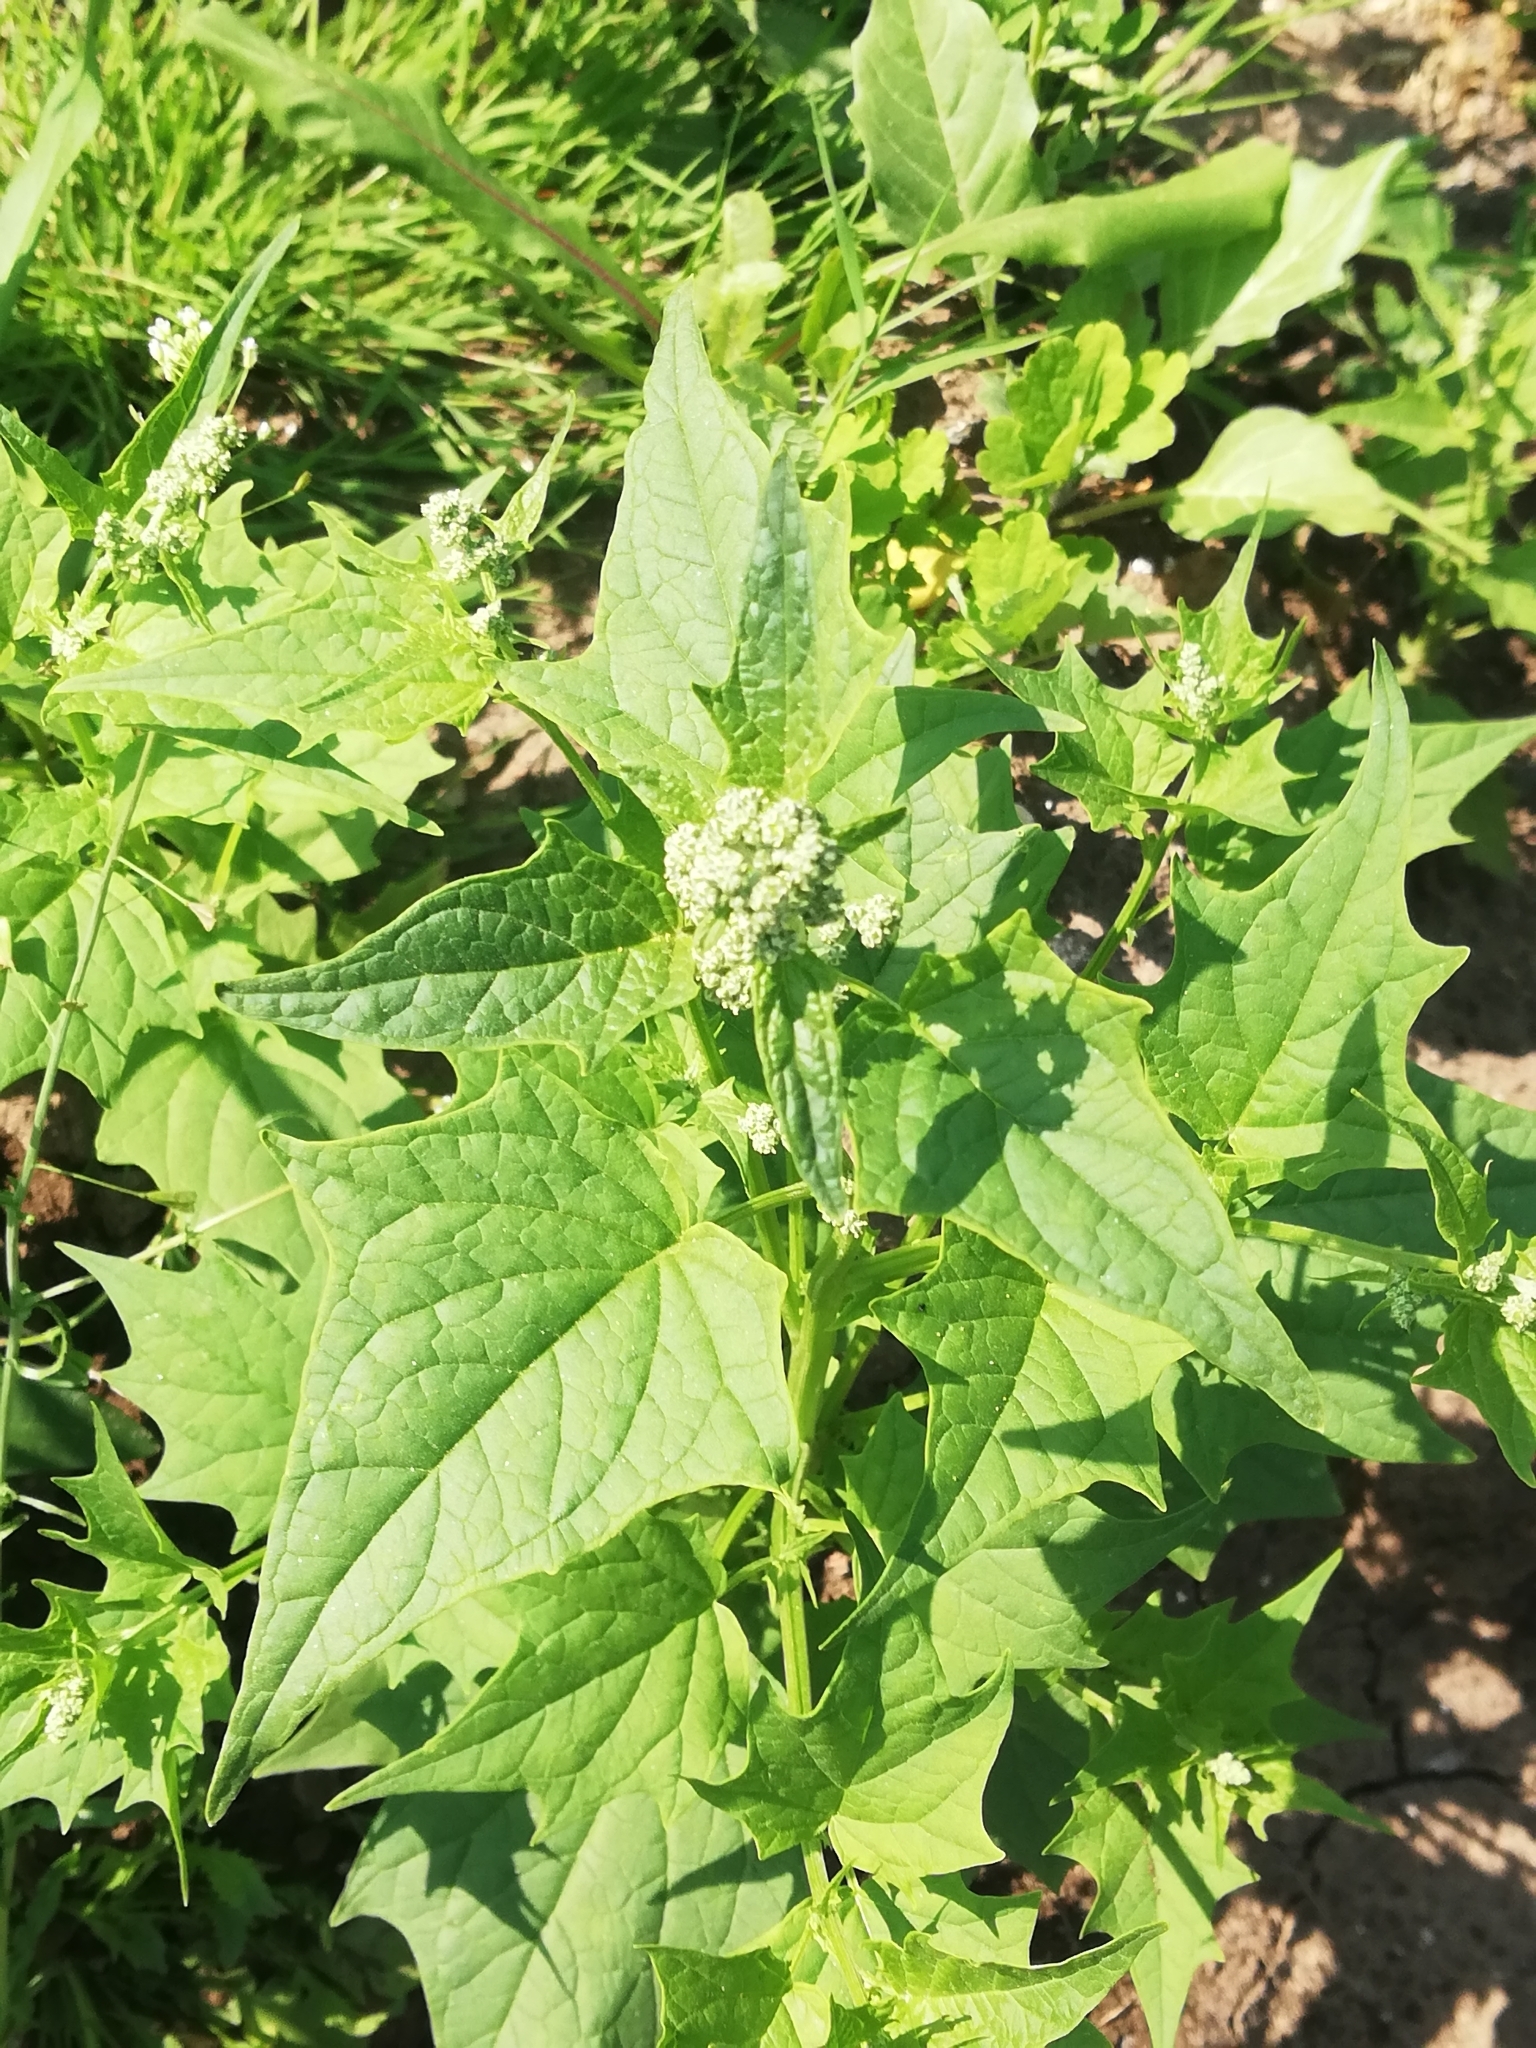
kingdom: Plantae
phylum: Tracheophyta
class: Magnoliopsida
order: Caryophyllales
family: Amaranthaceae
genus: Chenopodiastrum
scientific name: Chenopodiastrum hybridum
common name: Mapleleaf goosefoot
